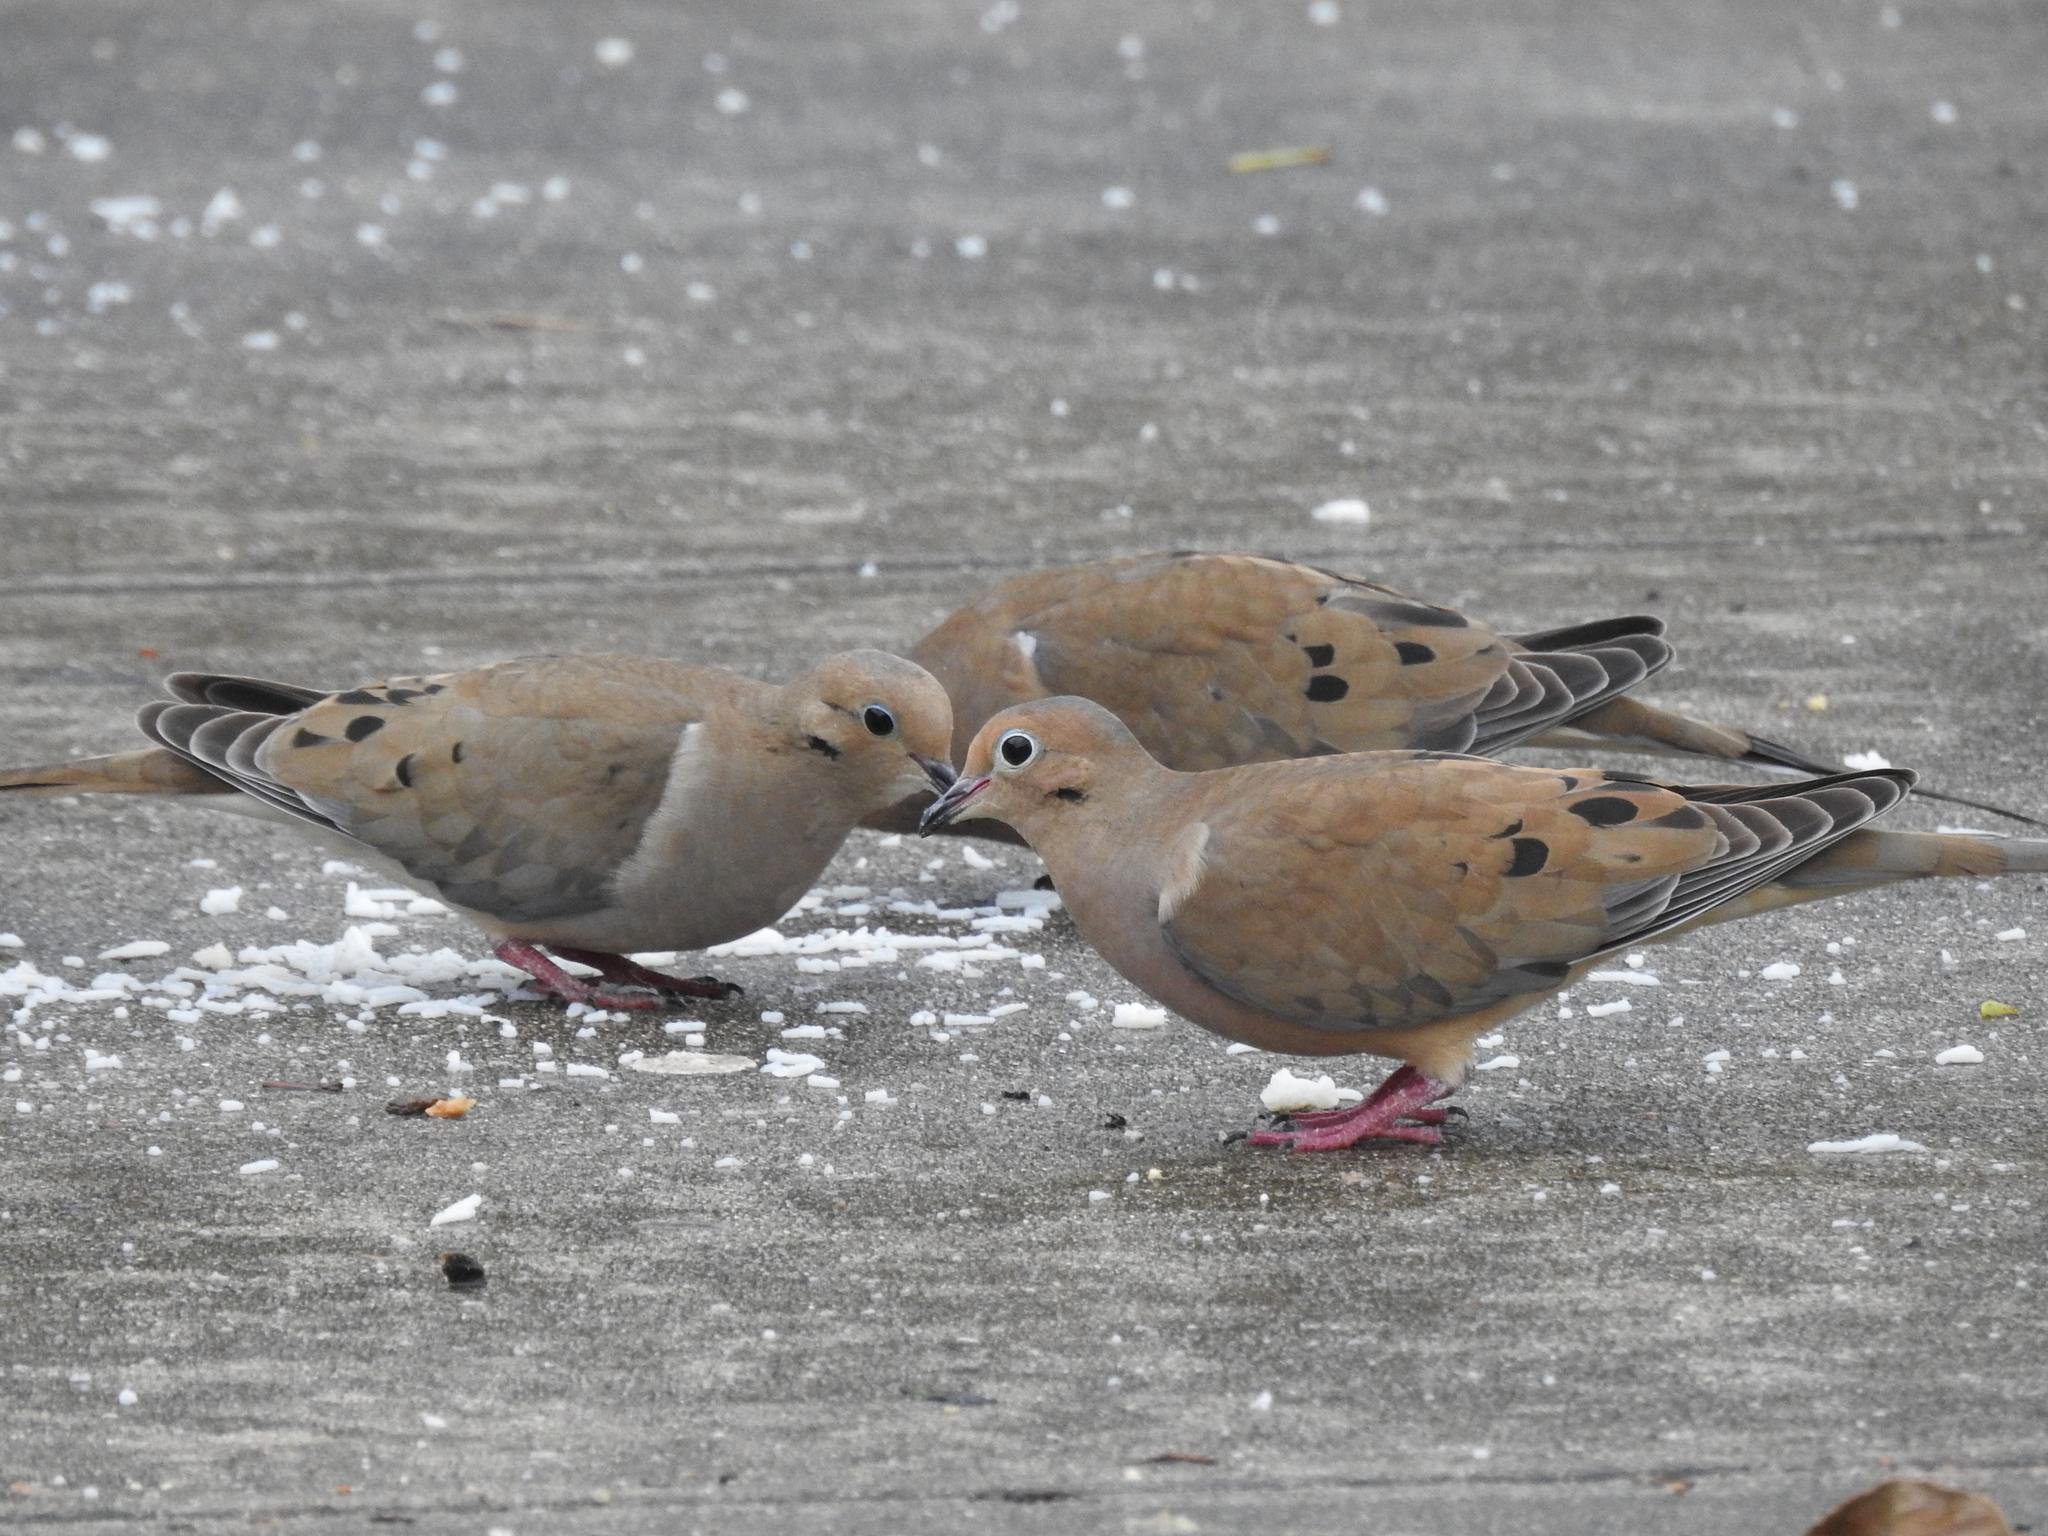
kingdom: Animalia
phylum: Chordata
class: Aves
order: Columbiformes
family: Columbidae
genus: Zenaida
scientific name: Zenaida macroura
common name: Mourning dove
